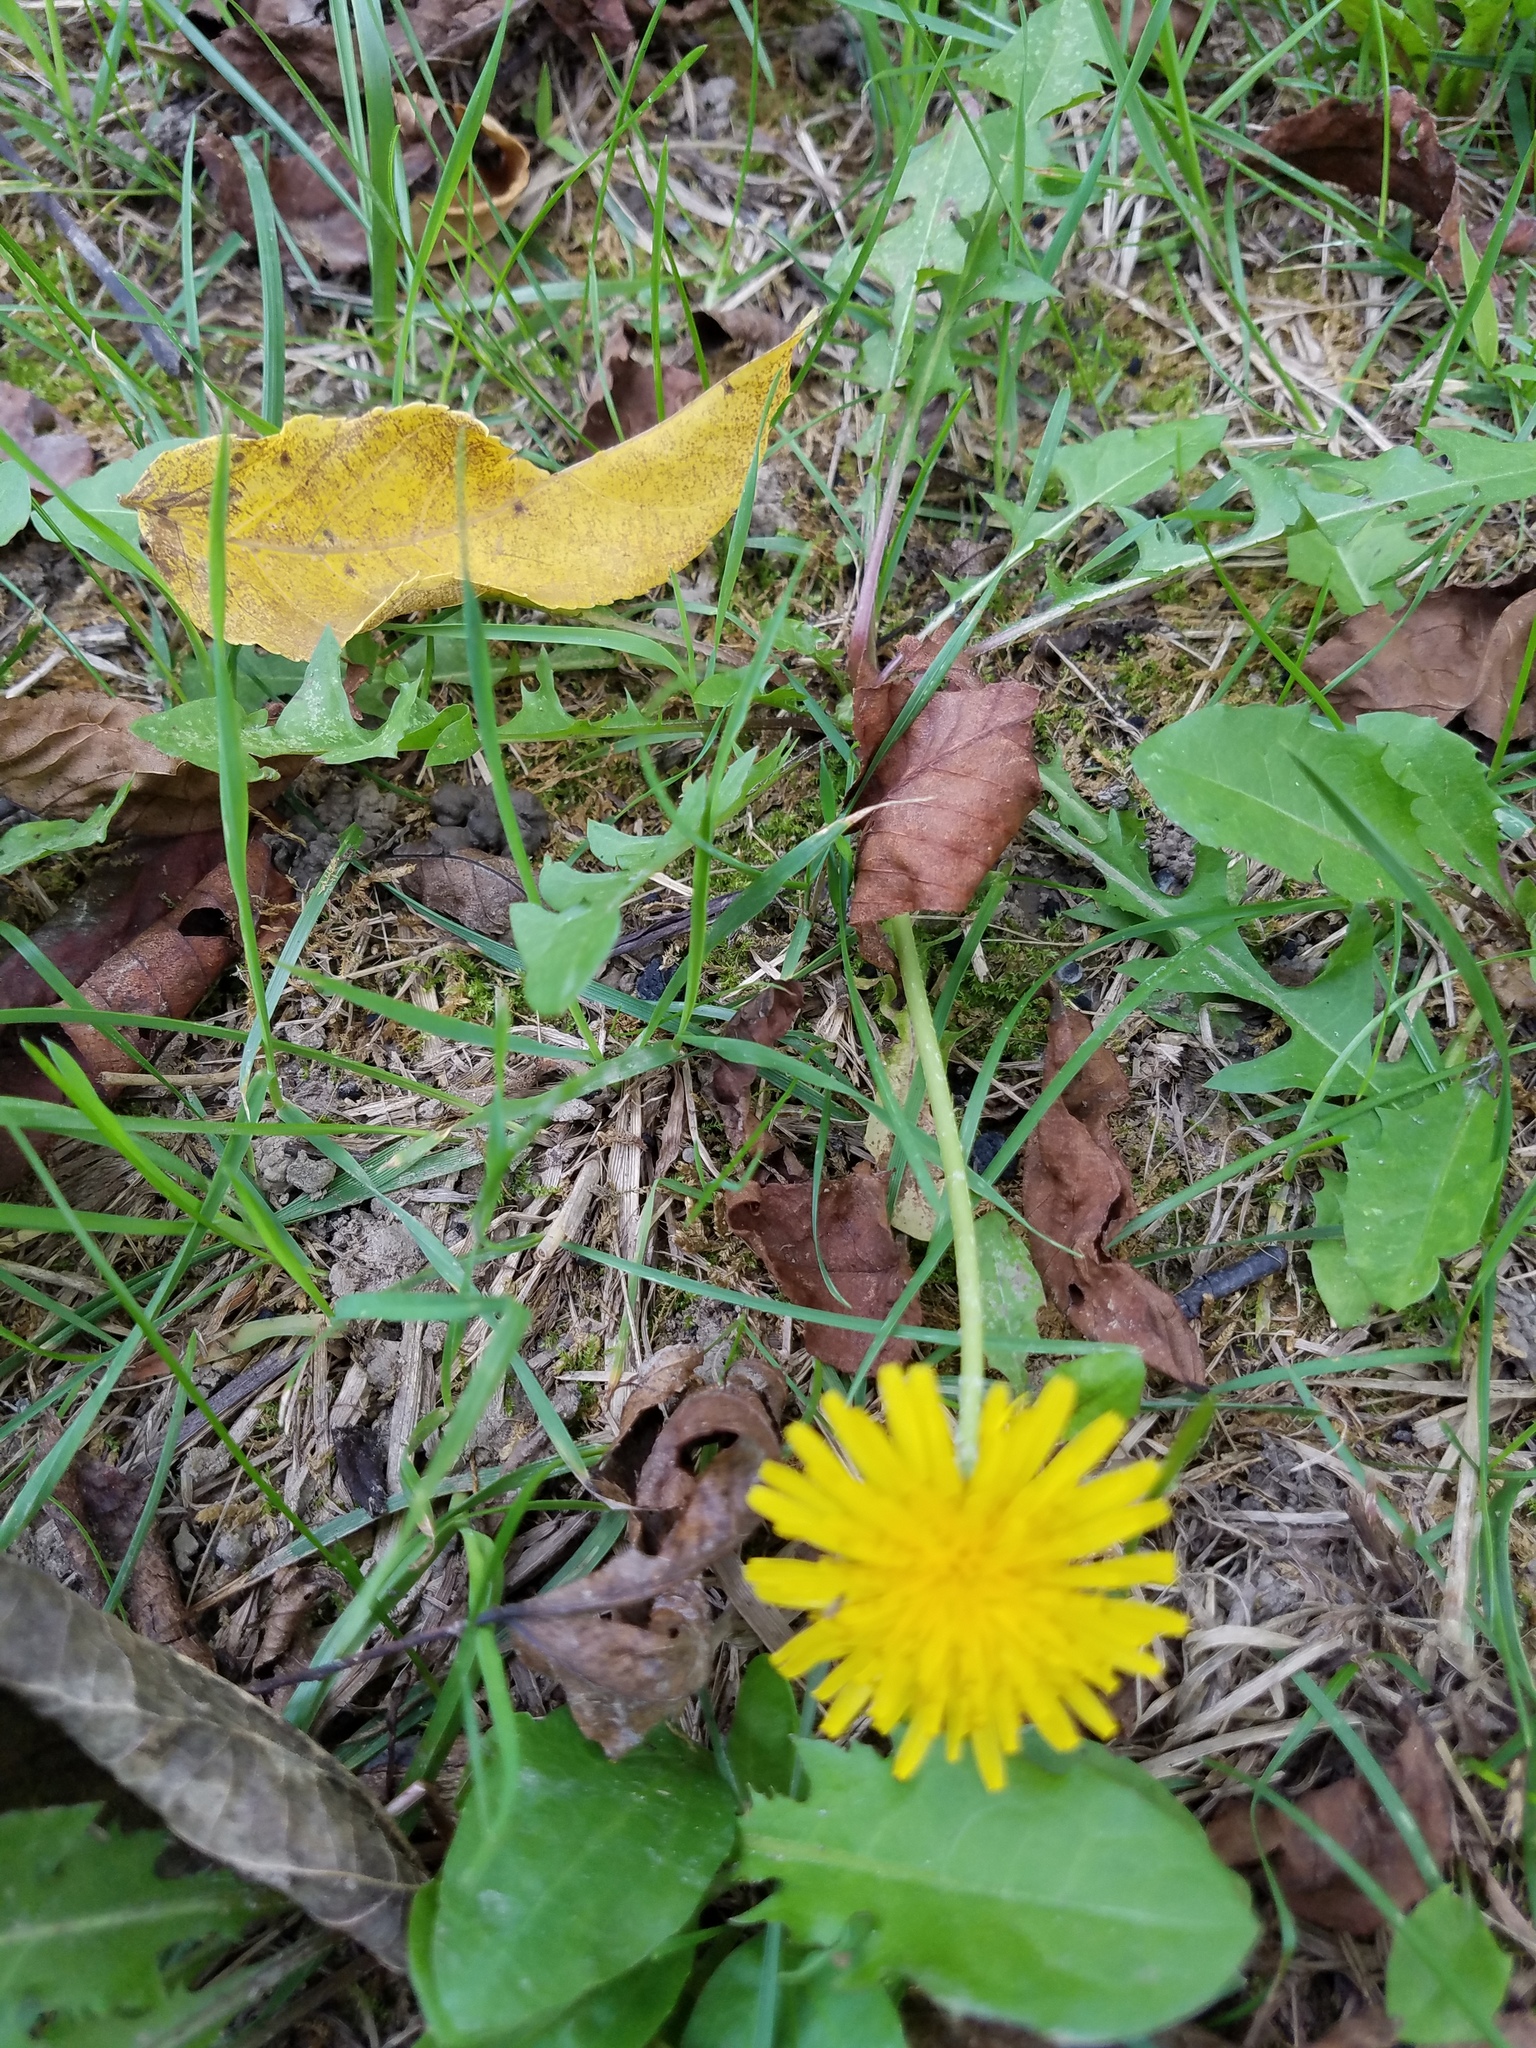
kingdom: Plantae
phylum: Tracheophyta
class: Magnoliopsida
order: Asterales
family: Asteraceae
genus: Taraxacum
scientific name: Taraxacum officinale
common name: Common dandelion
